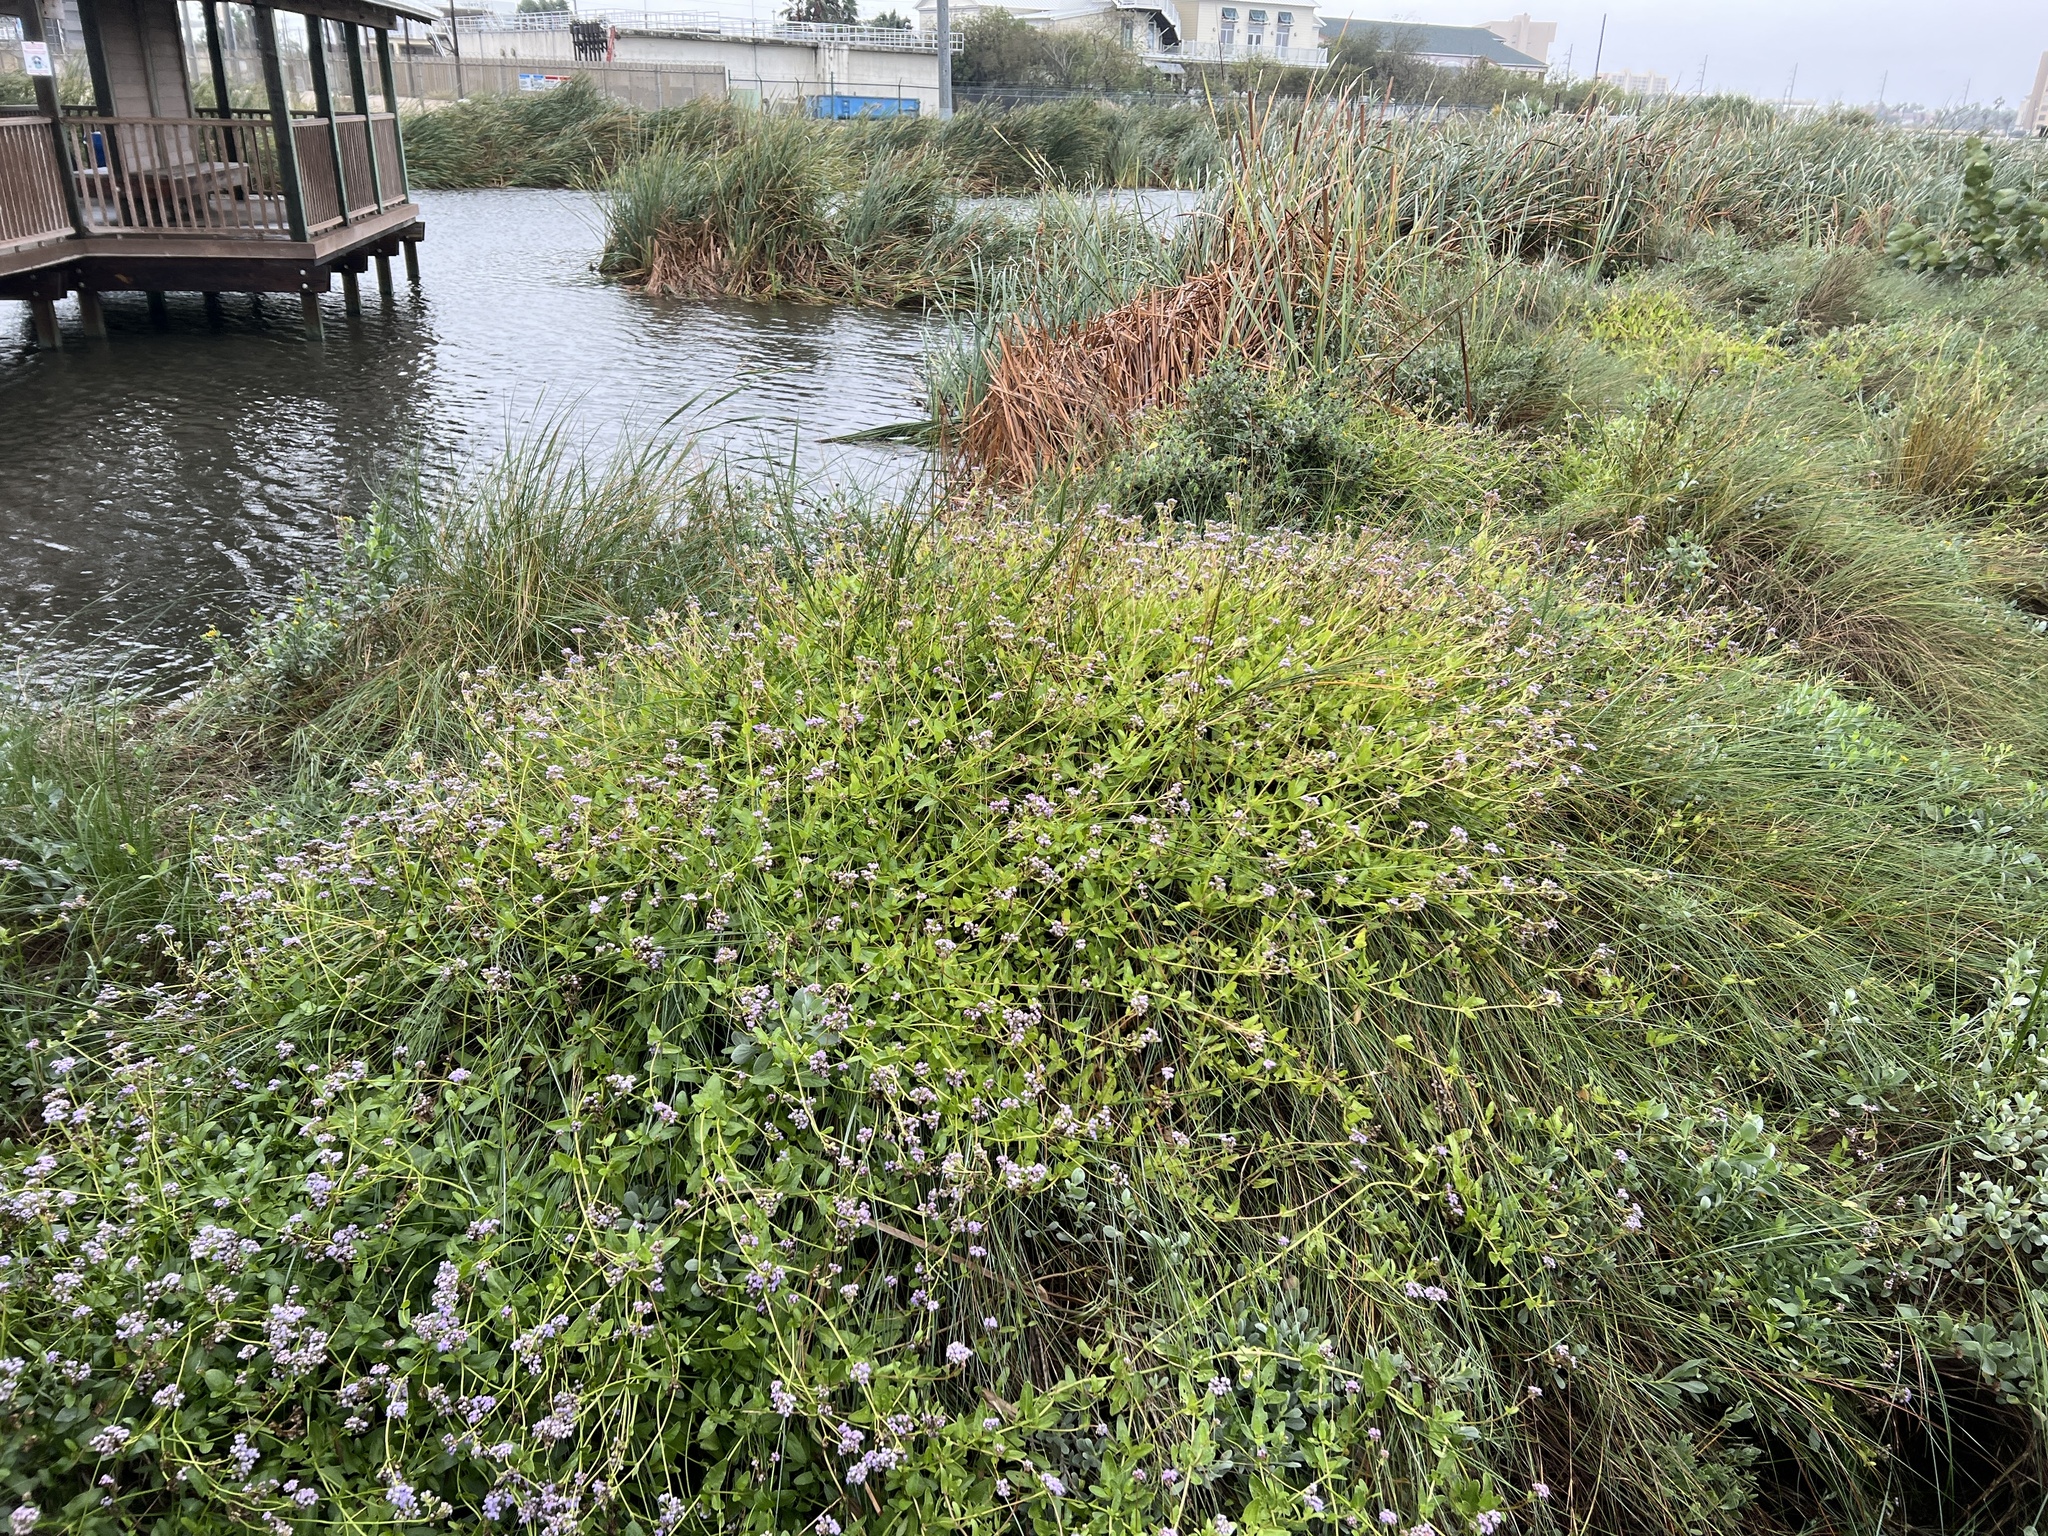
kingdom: Plantae
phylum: Tracheophyta
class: Magnoliopsida
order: Asterales
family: Asteraceae
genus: Conoclinium
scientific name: Conoclinium betonicifolium
